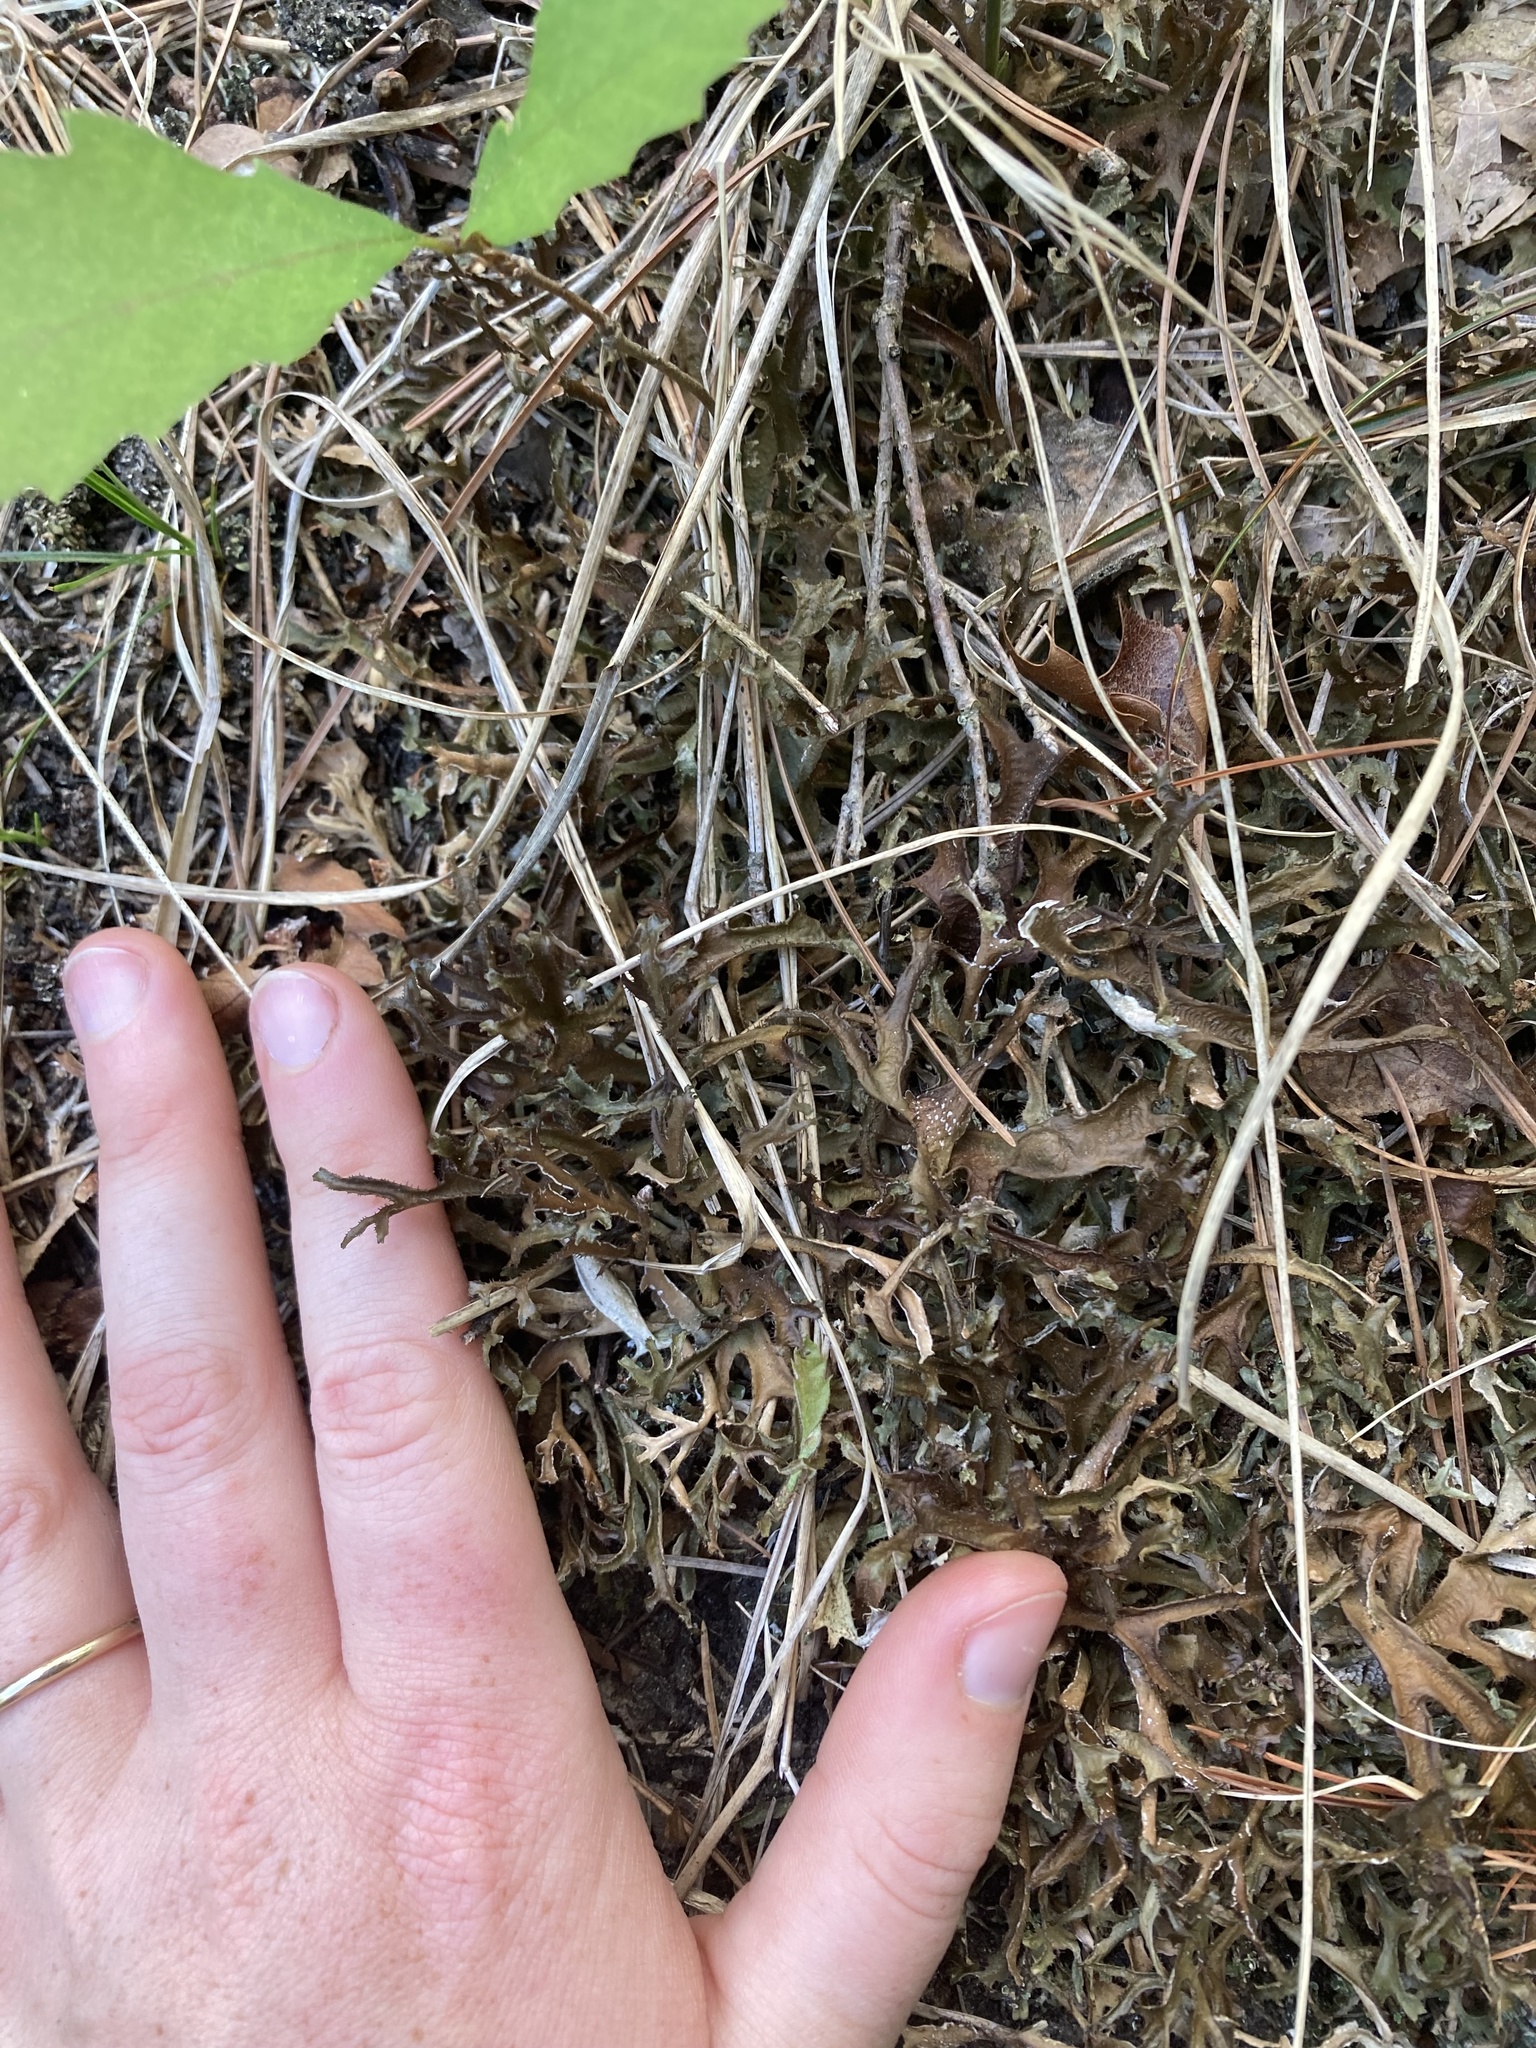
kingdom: Fungi
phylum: Ascomycota
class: Lecanoromycetes
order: Lecanorales
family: Parmeliaceae
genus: Cetraria
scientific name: Cetraria arenaria
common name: Sand-loving iceland lichen
